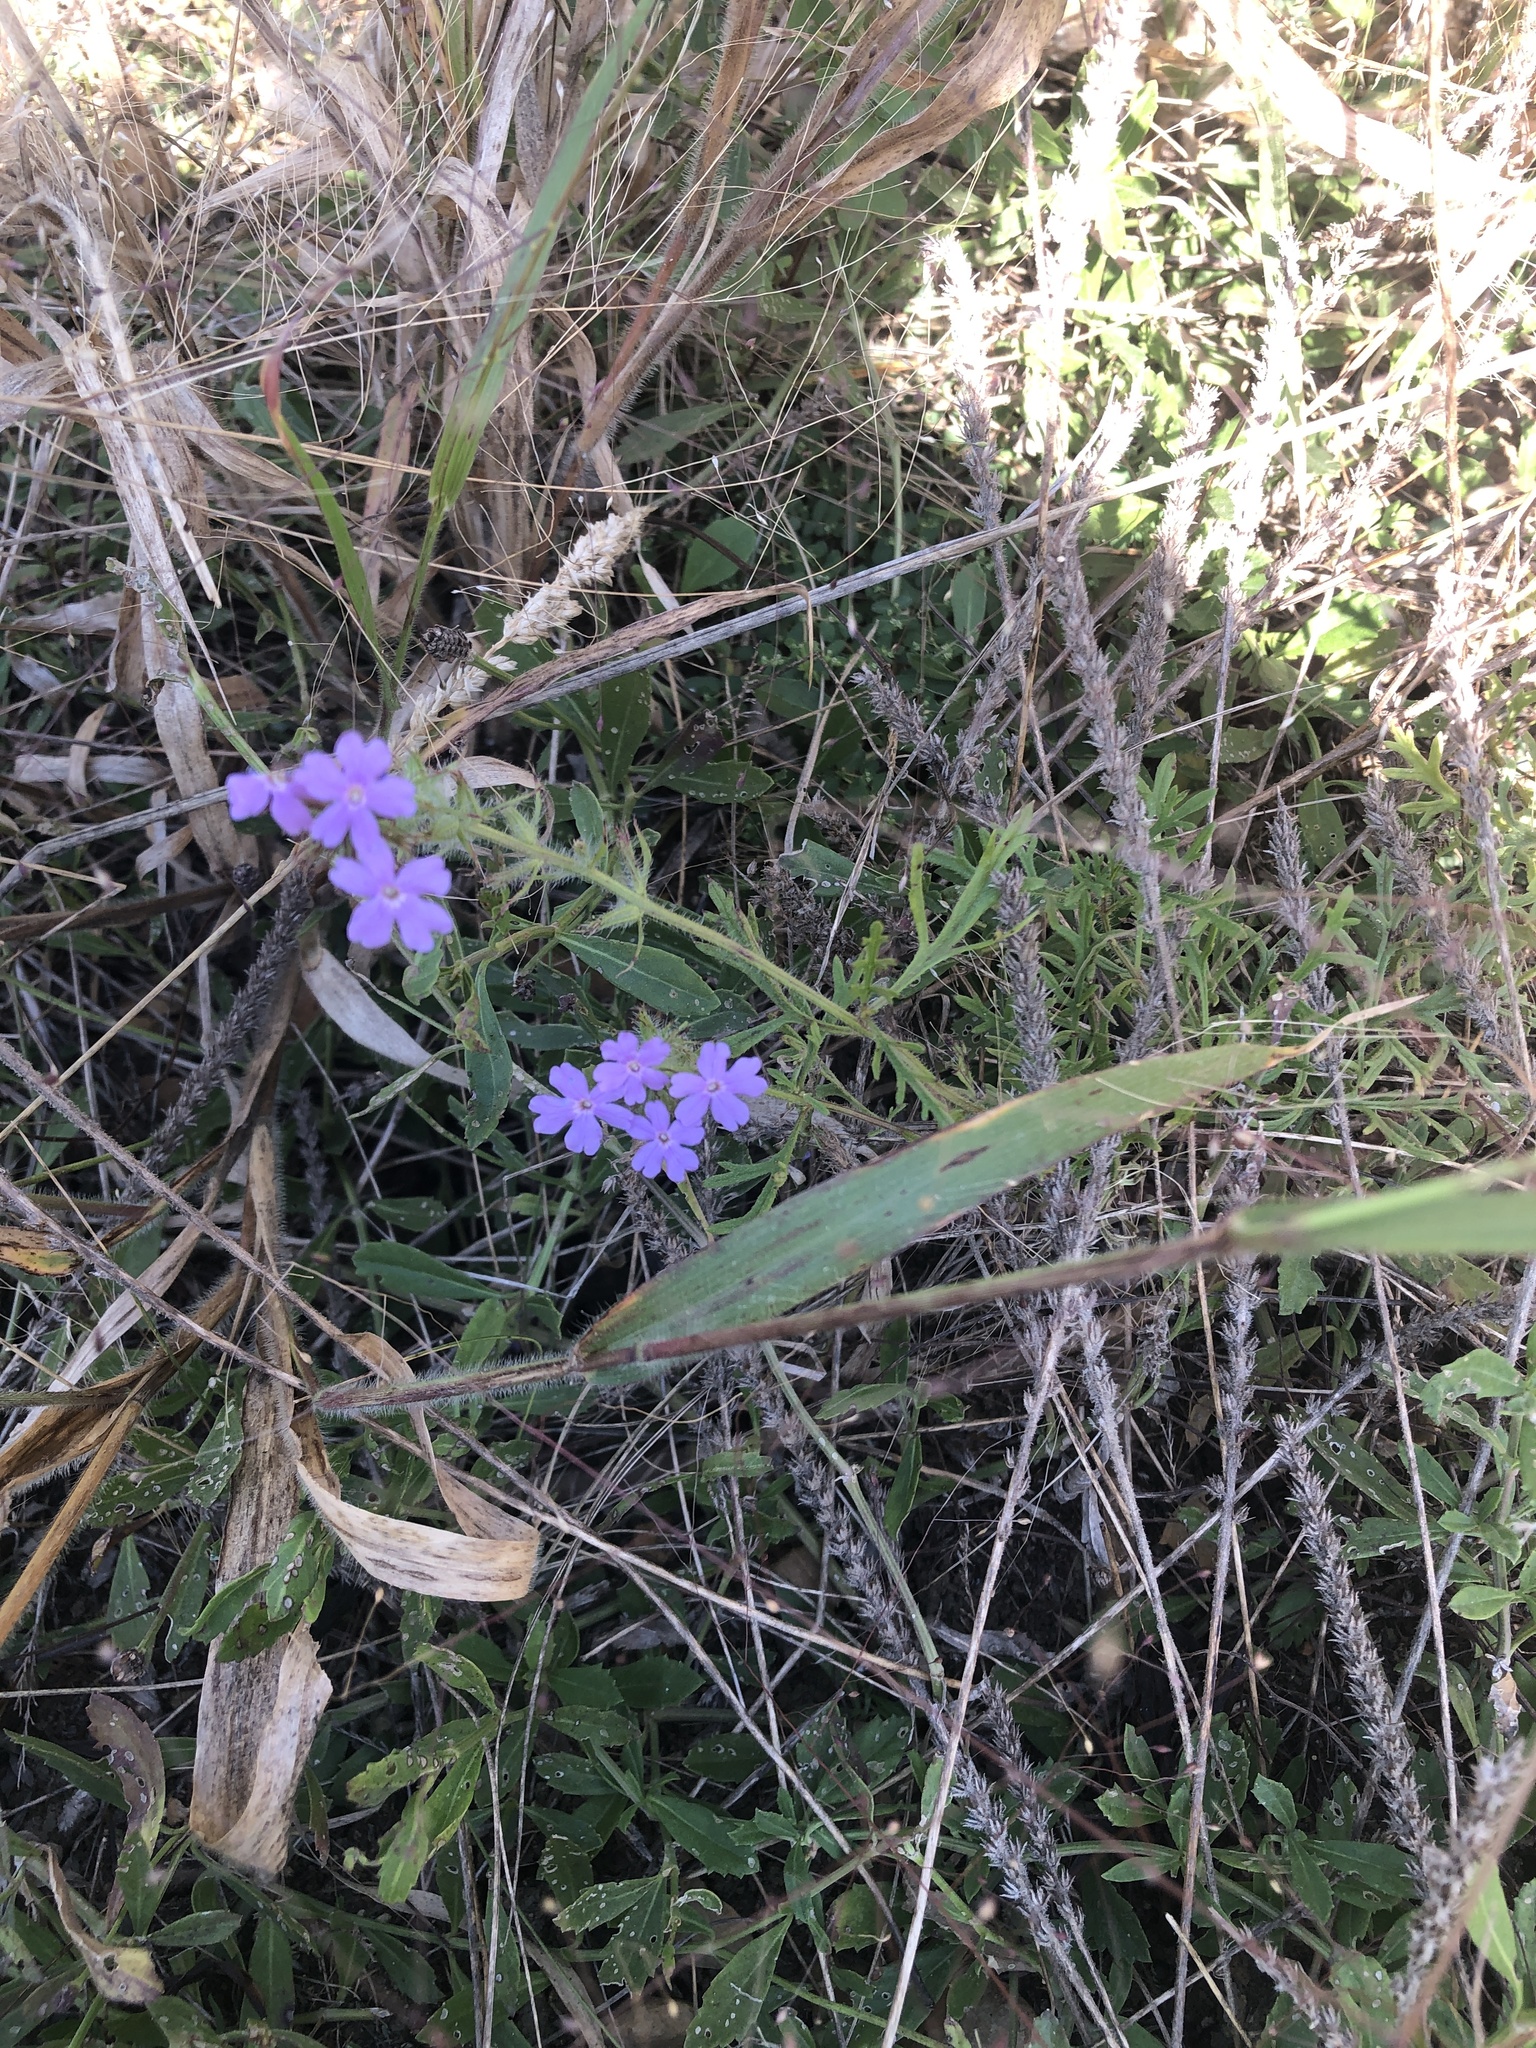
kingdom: Plantae
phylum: Tracheophyta
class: Magnoliopsida
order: Lamiales
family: Verbenaceae
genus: Verbena
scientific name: Verbena bipinnatifida
